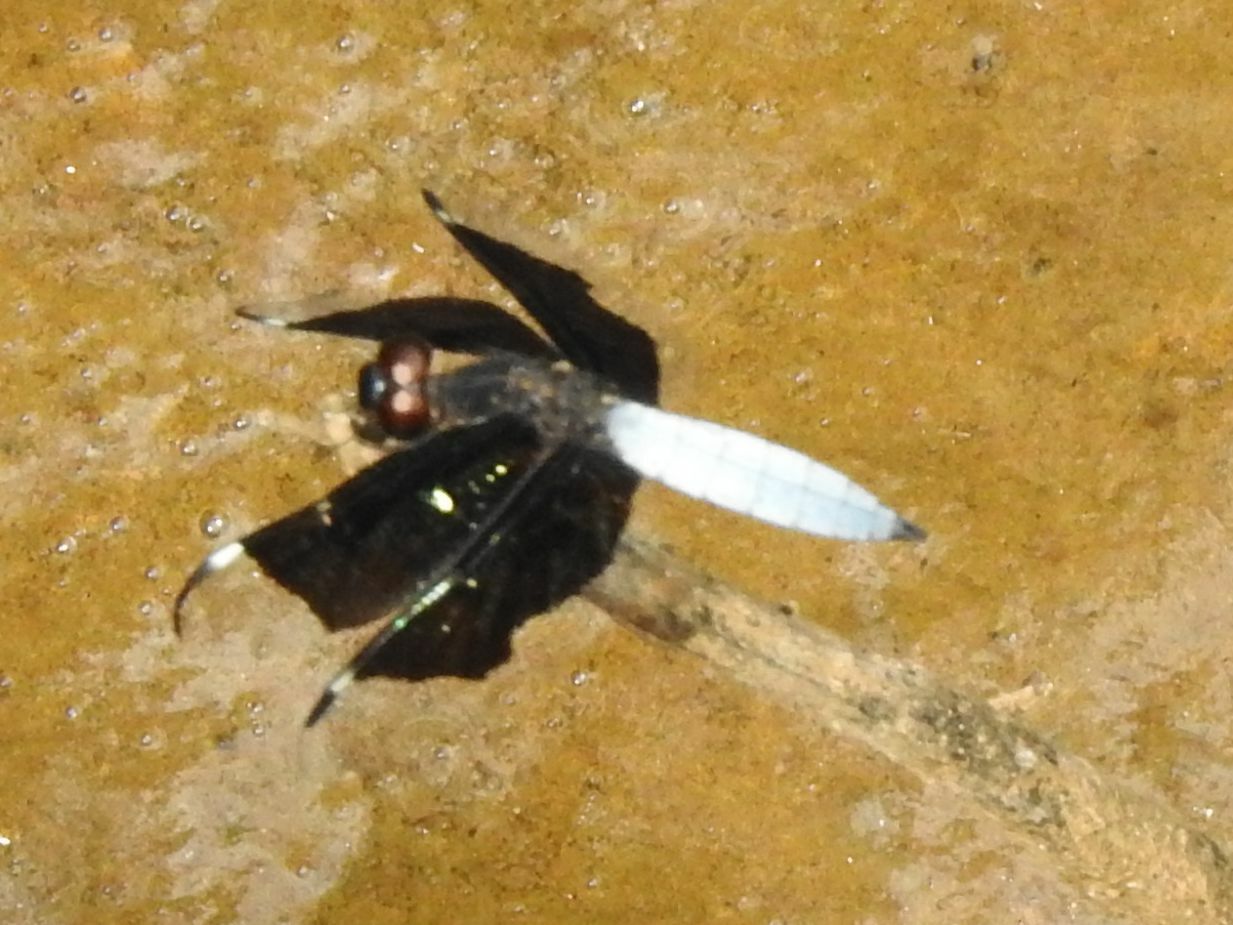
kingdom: Animalia
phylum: Arthropoda
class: Insecta
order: Odonata
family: Libellulidae
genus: Palpopleura
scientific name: Palpopleura lucia
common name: Lucia widow
